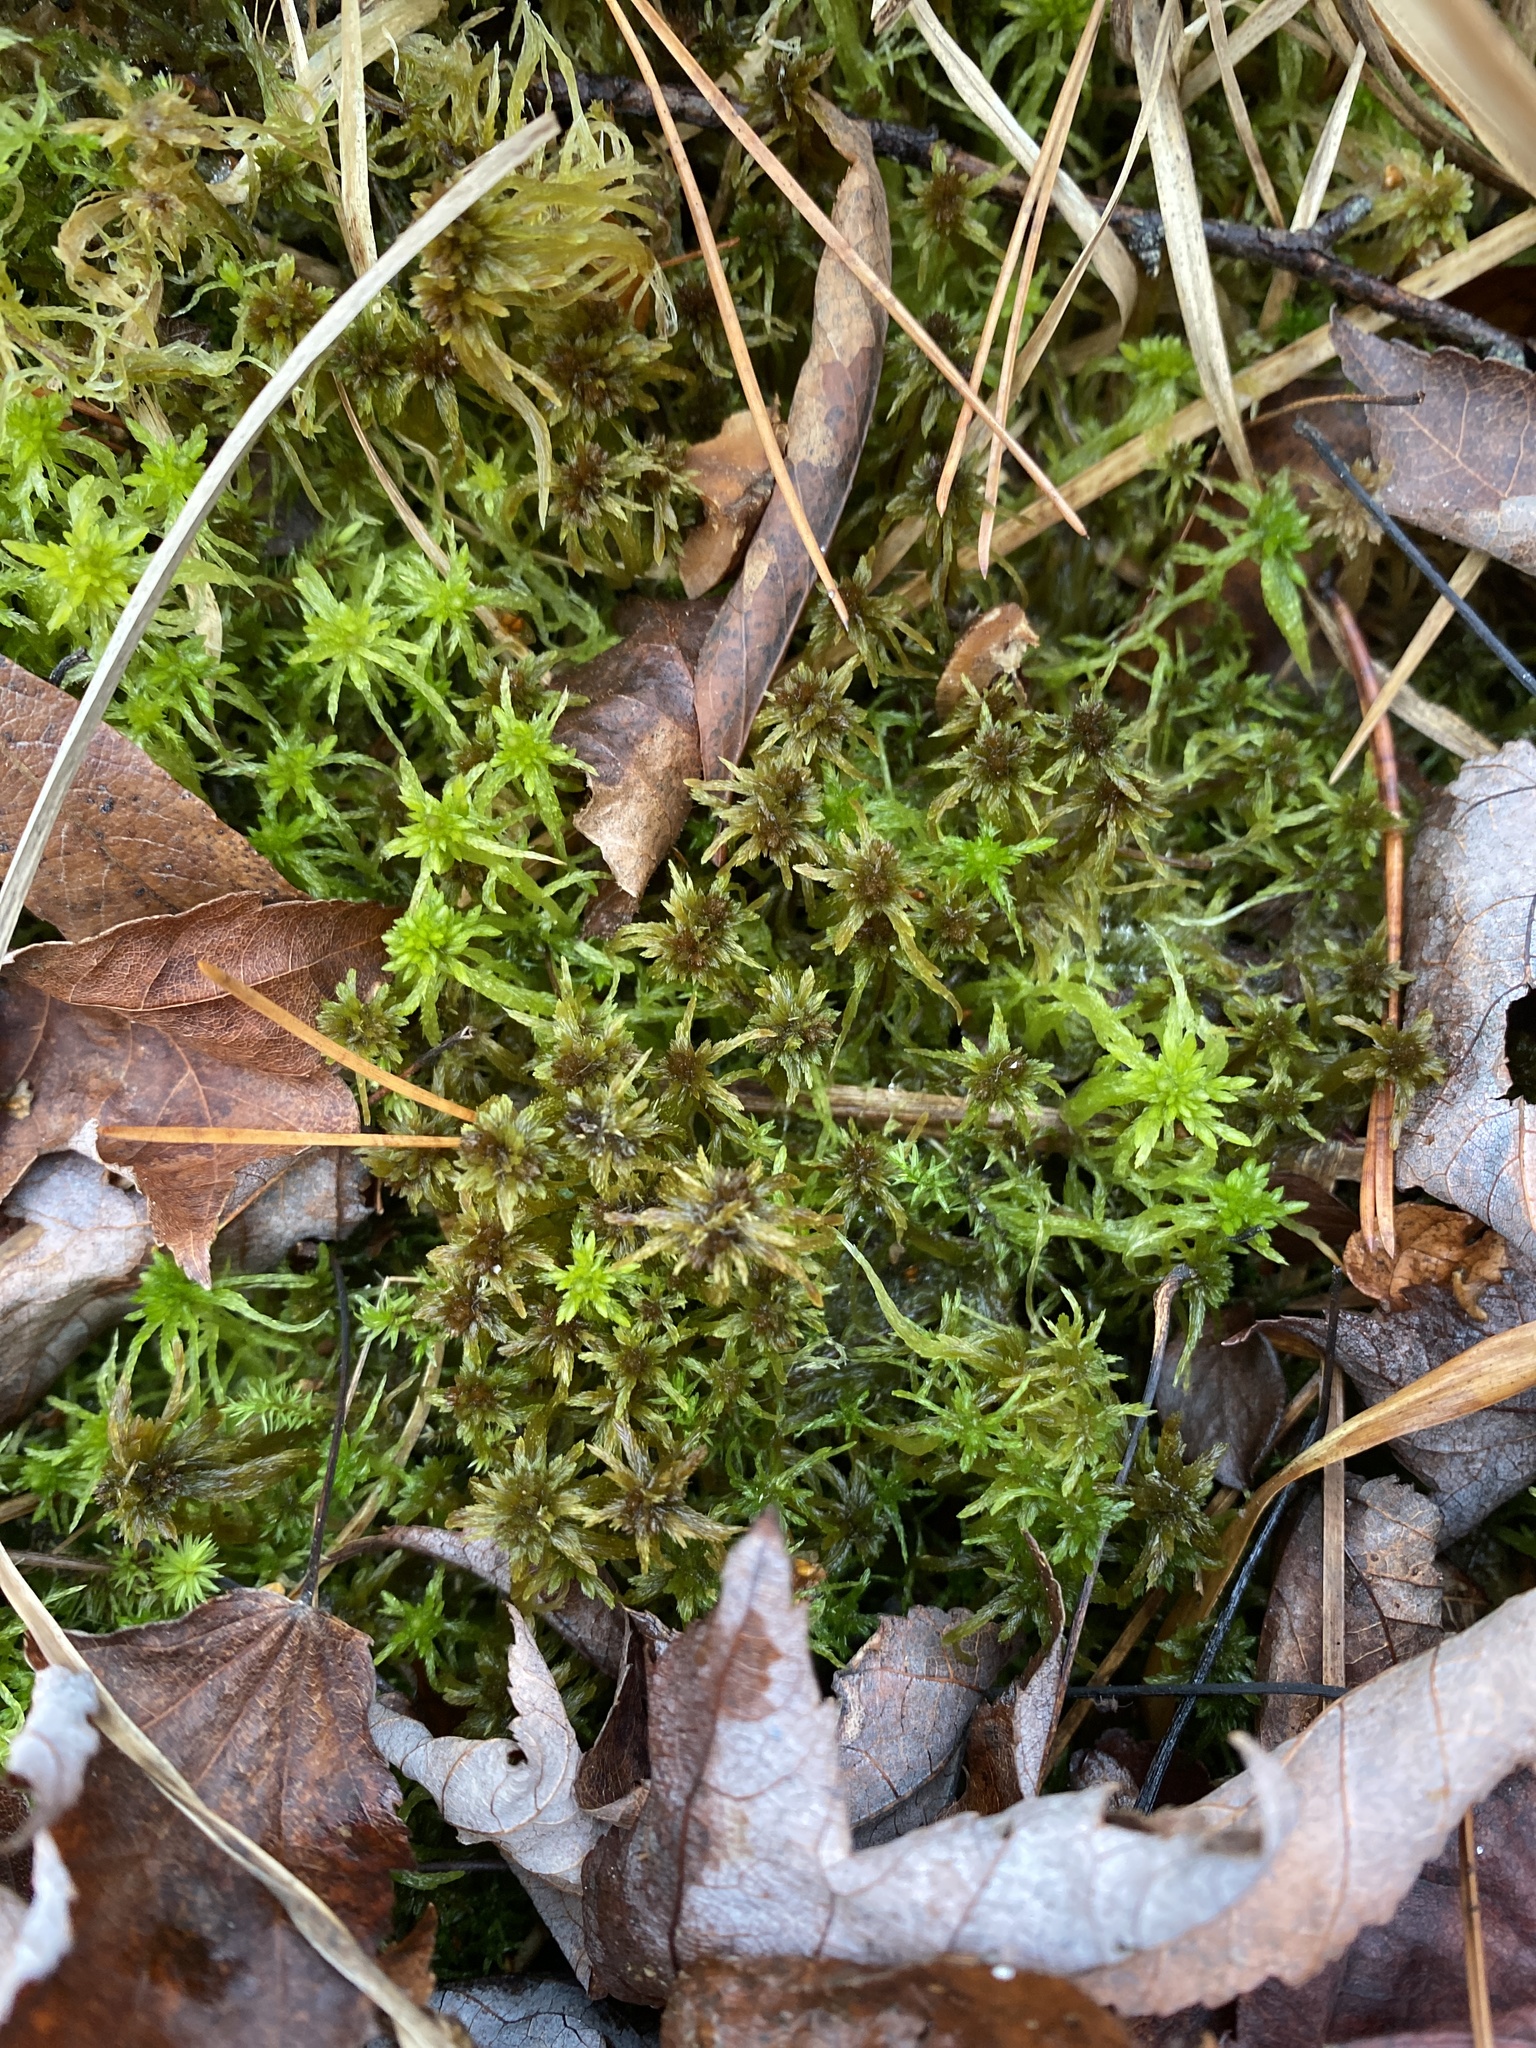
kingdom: Plantae
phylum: Bryophyta
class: Sphagnopsida
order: Sphagnales
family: Sphagnaceae
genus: Sphagnum
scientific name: Sphagnum fuscum
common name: Brown peat moss
